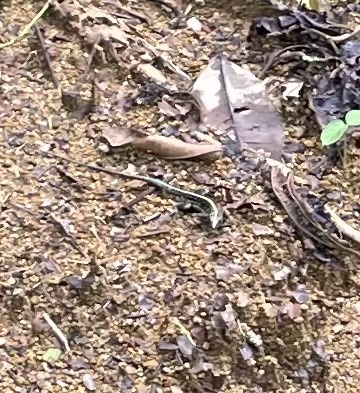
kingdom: Animalia
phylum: Chordata
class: Squamata
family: Teiidae
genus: Holcosus
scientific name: Holcosus festivus
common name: Middle american ameiva
